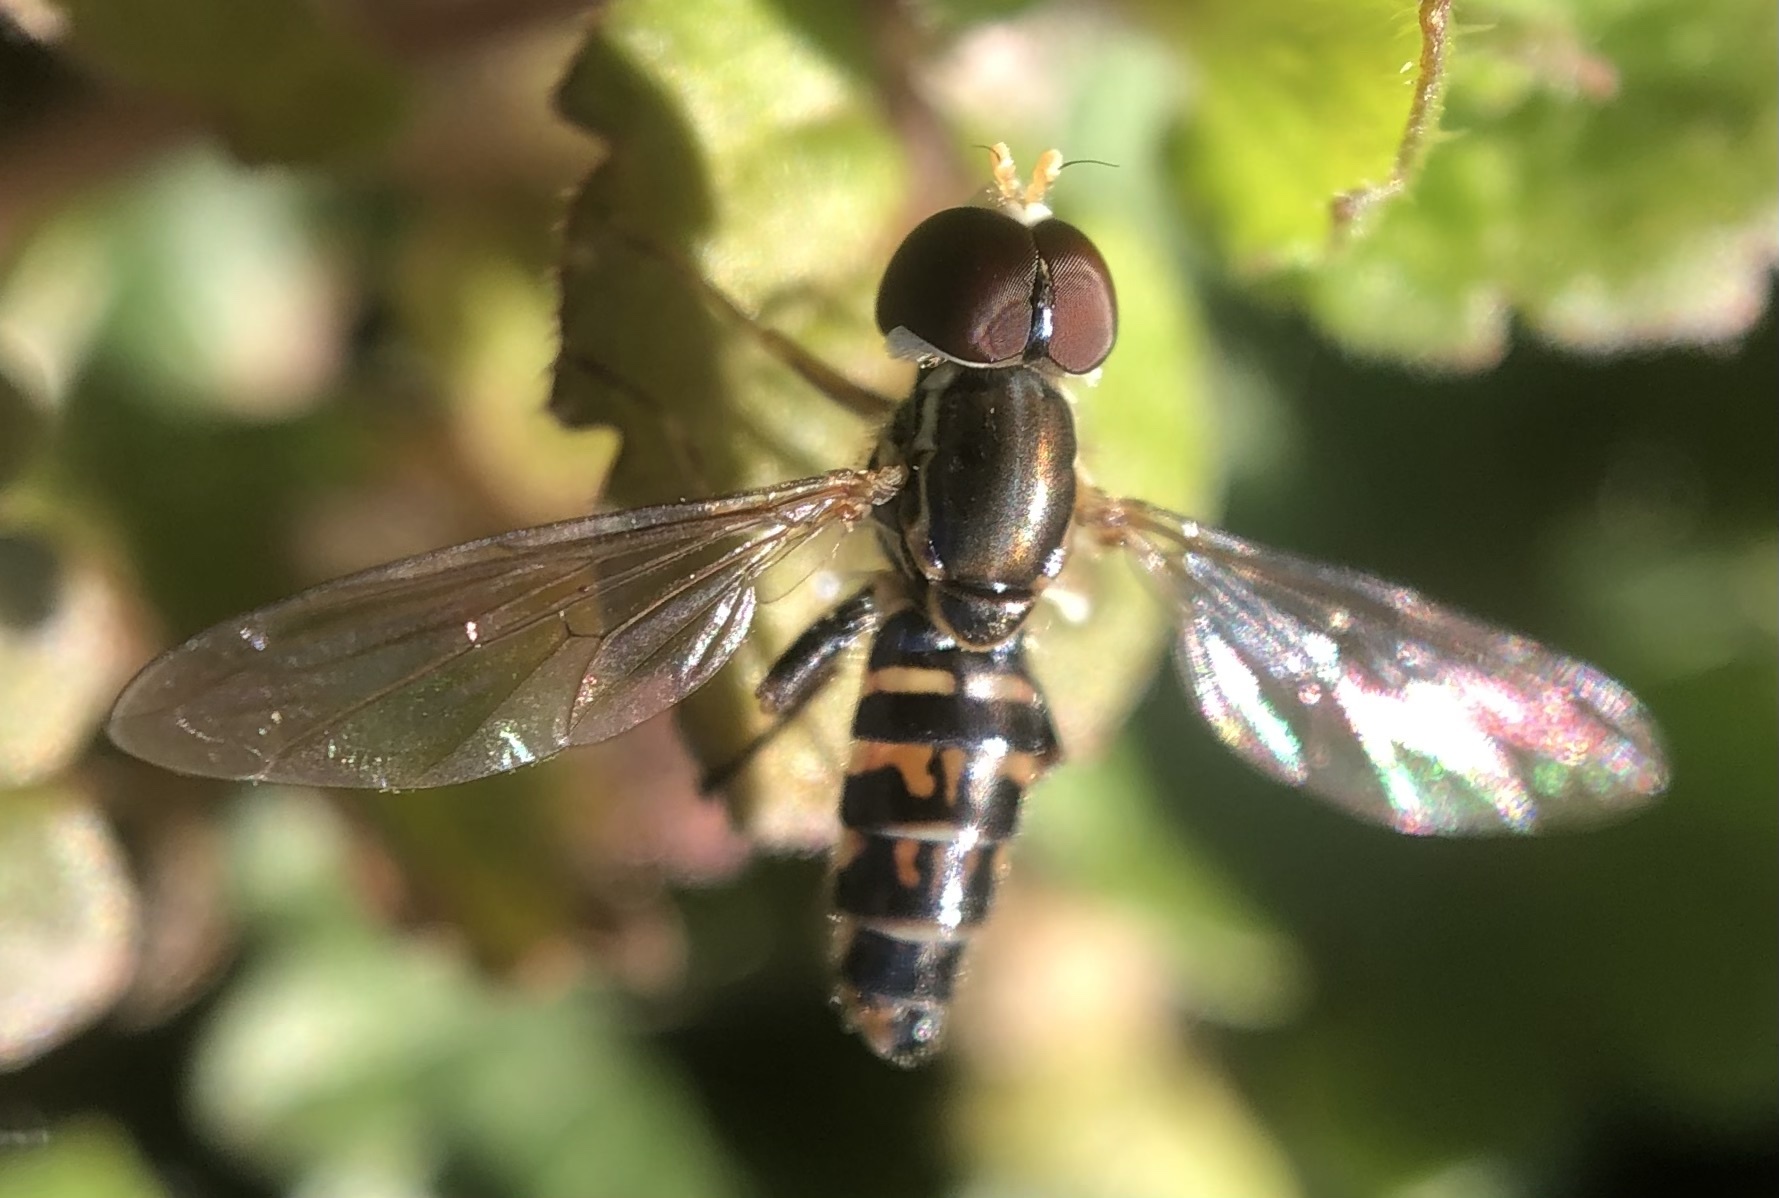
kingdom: Animalia
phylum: Arthropoda
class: Insecta
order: Diptera
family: Syrphidae
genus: Toxomerus
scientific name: Toxomerus geminatus
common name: Eastern calligrapher
